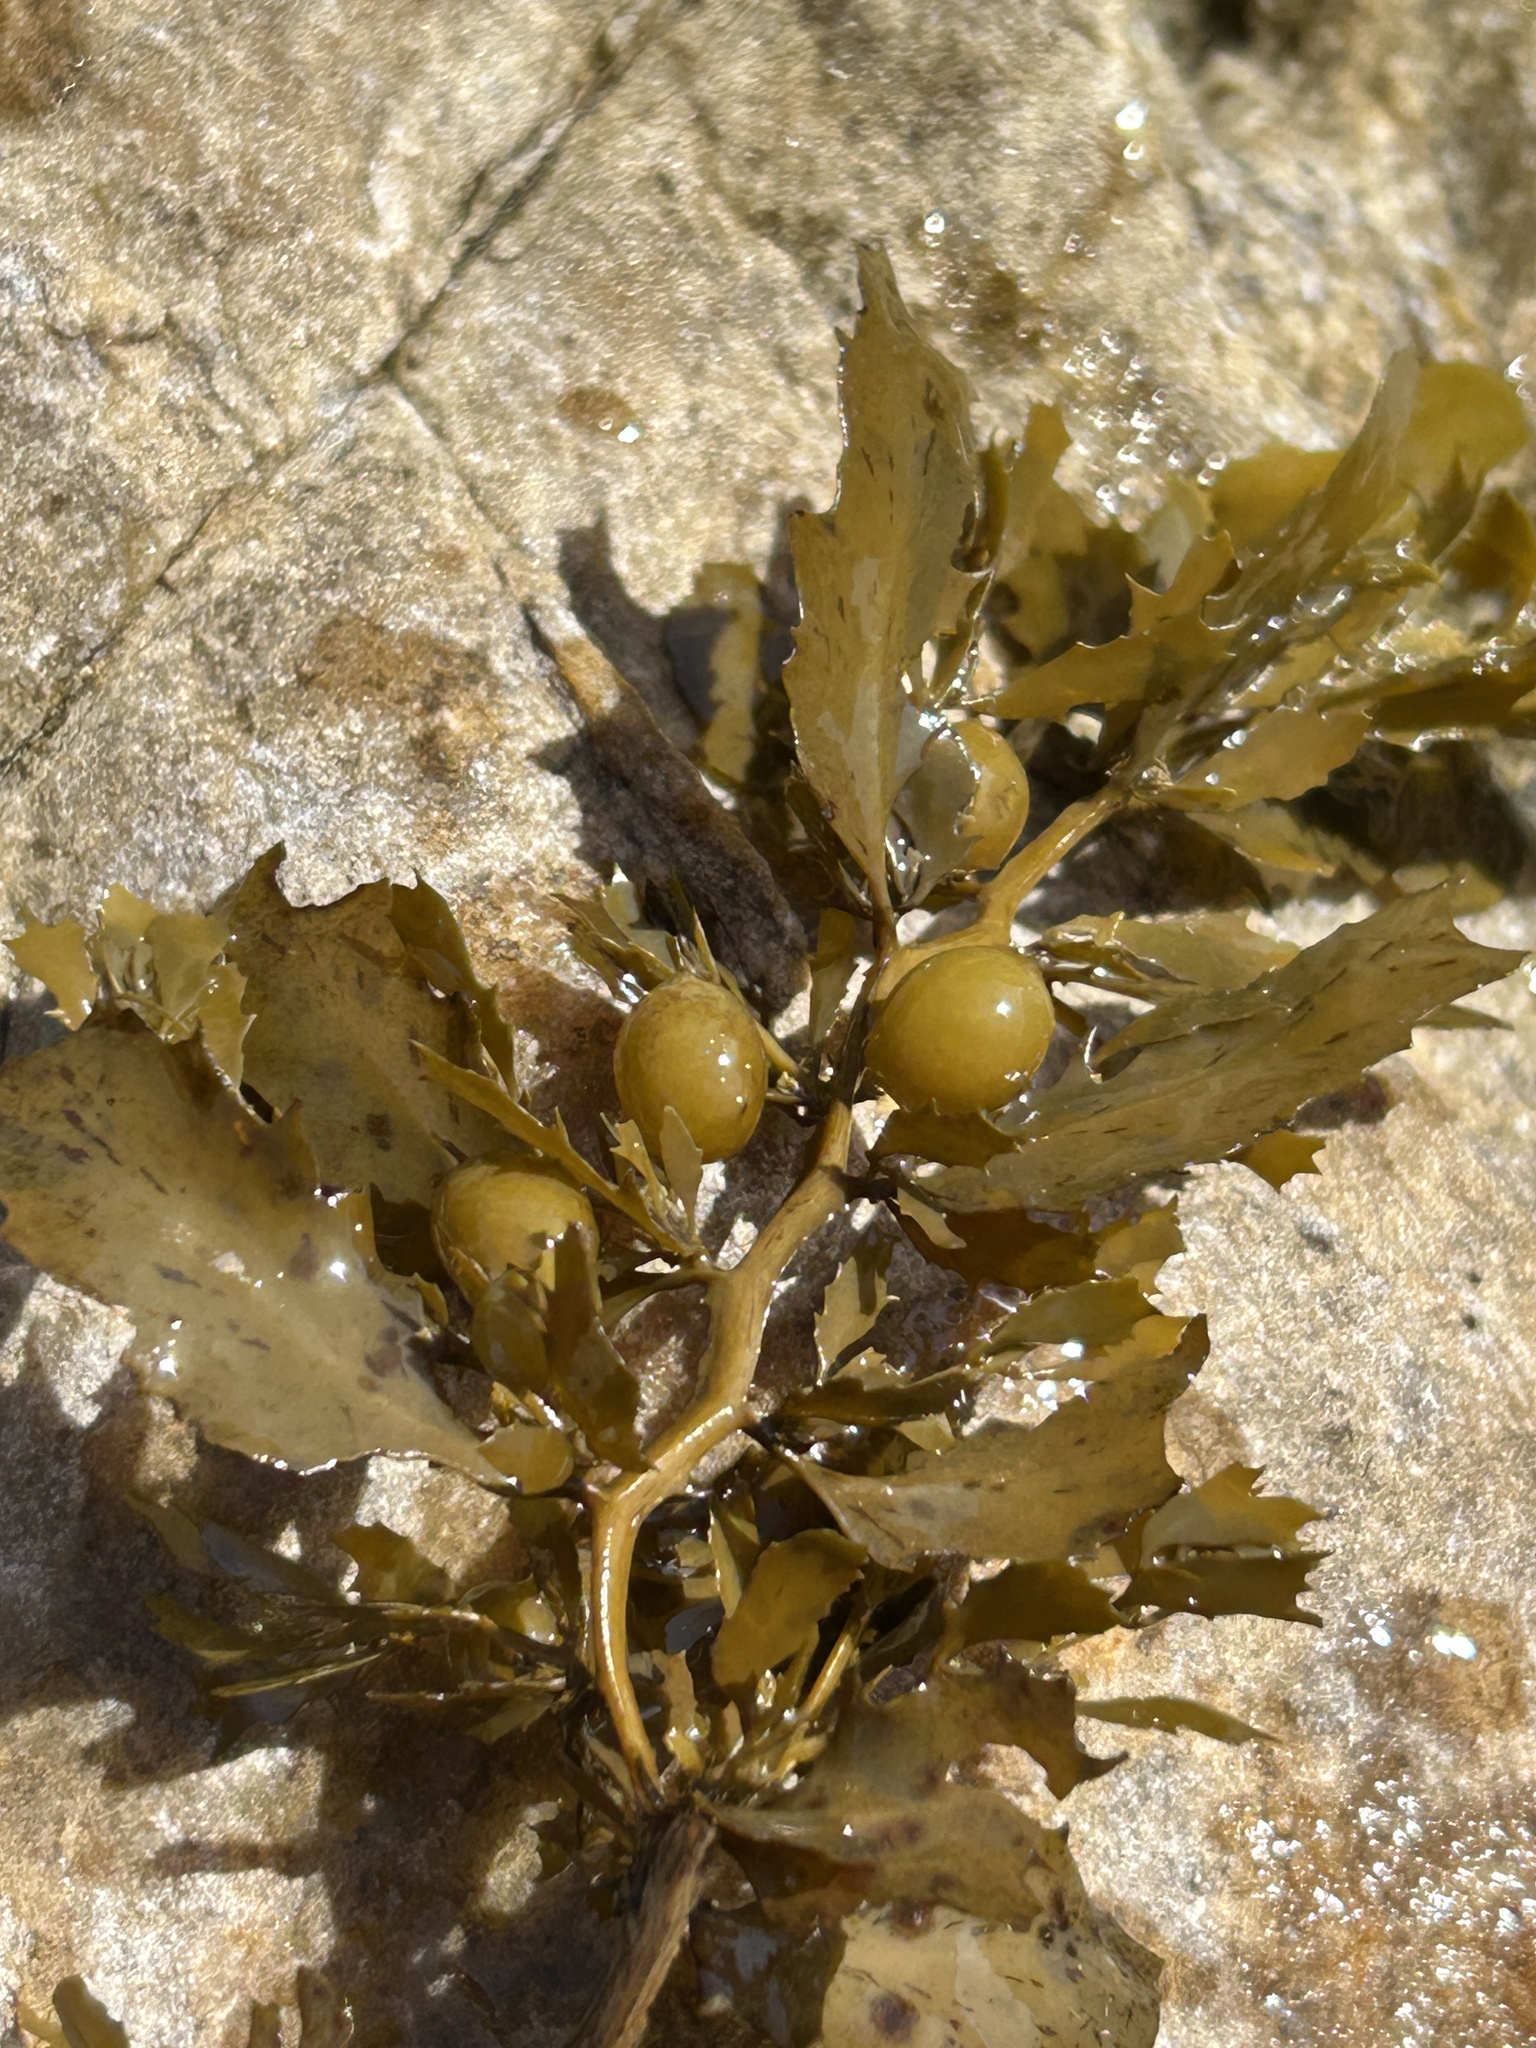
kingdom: Chromista
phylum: Ochrophyta
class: Phaeophyceae
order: Fucales
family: Sargassaceae
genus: Sargassum
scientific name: Sargassum incisifolium
